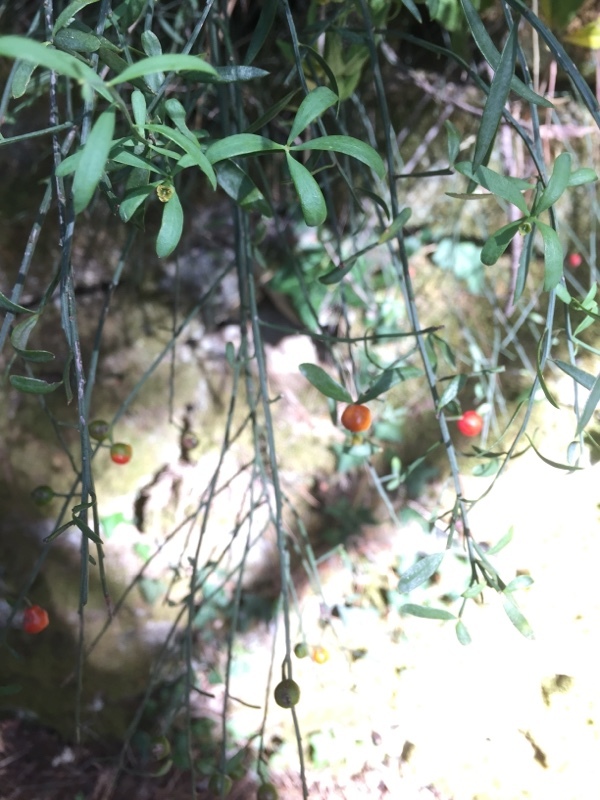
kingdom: Plantae
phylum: Tracheophyta
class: Magnoliopsida
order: Santalales
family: Santalaceae
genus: Osyris
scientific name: Osyris alba
